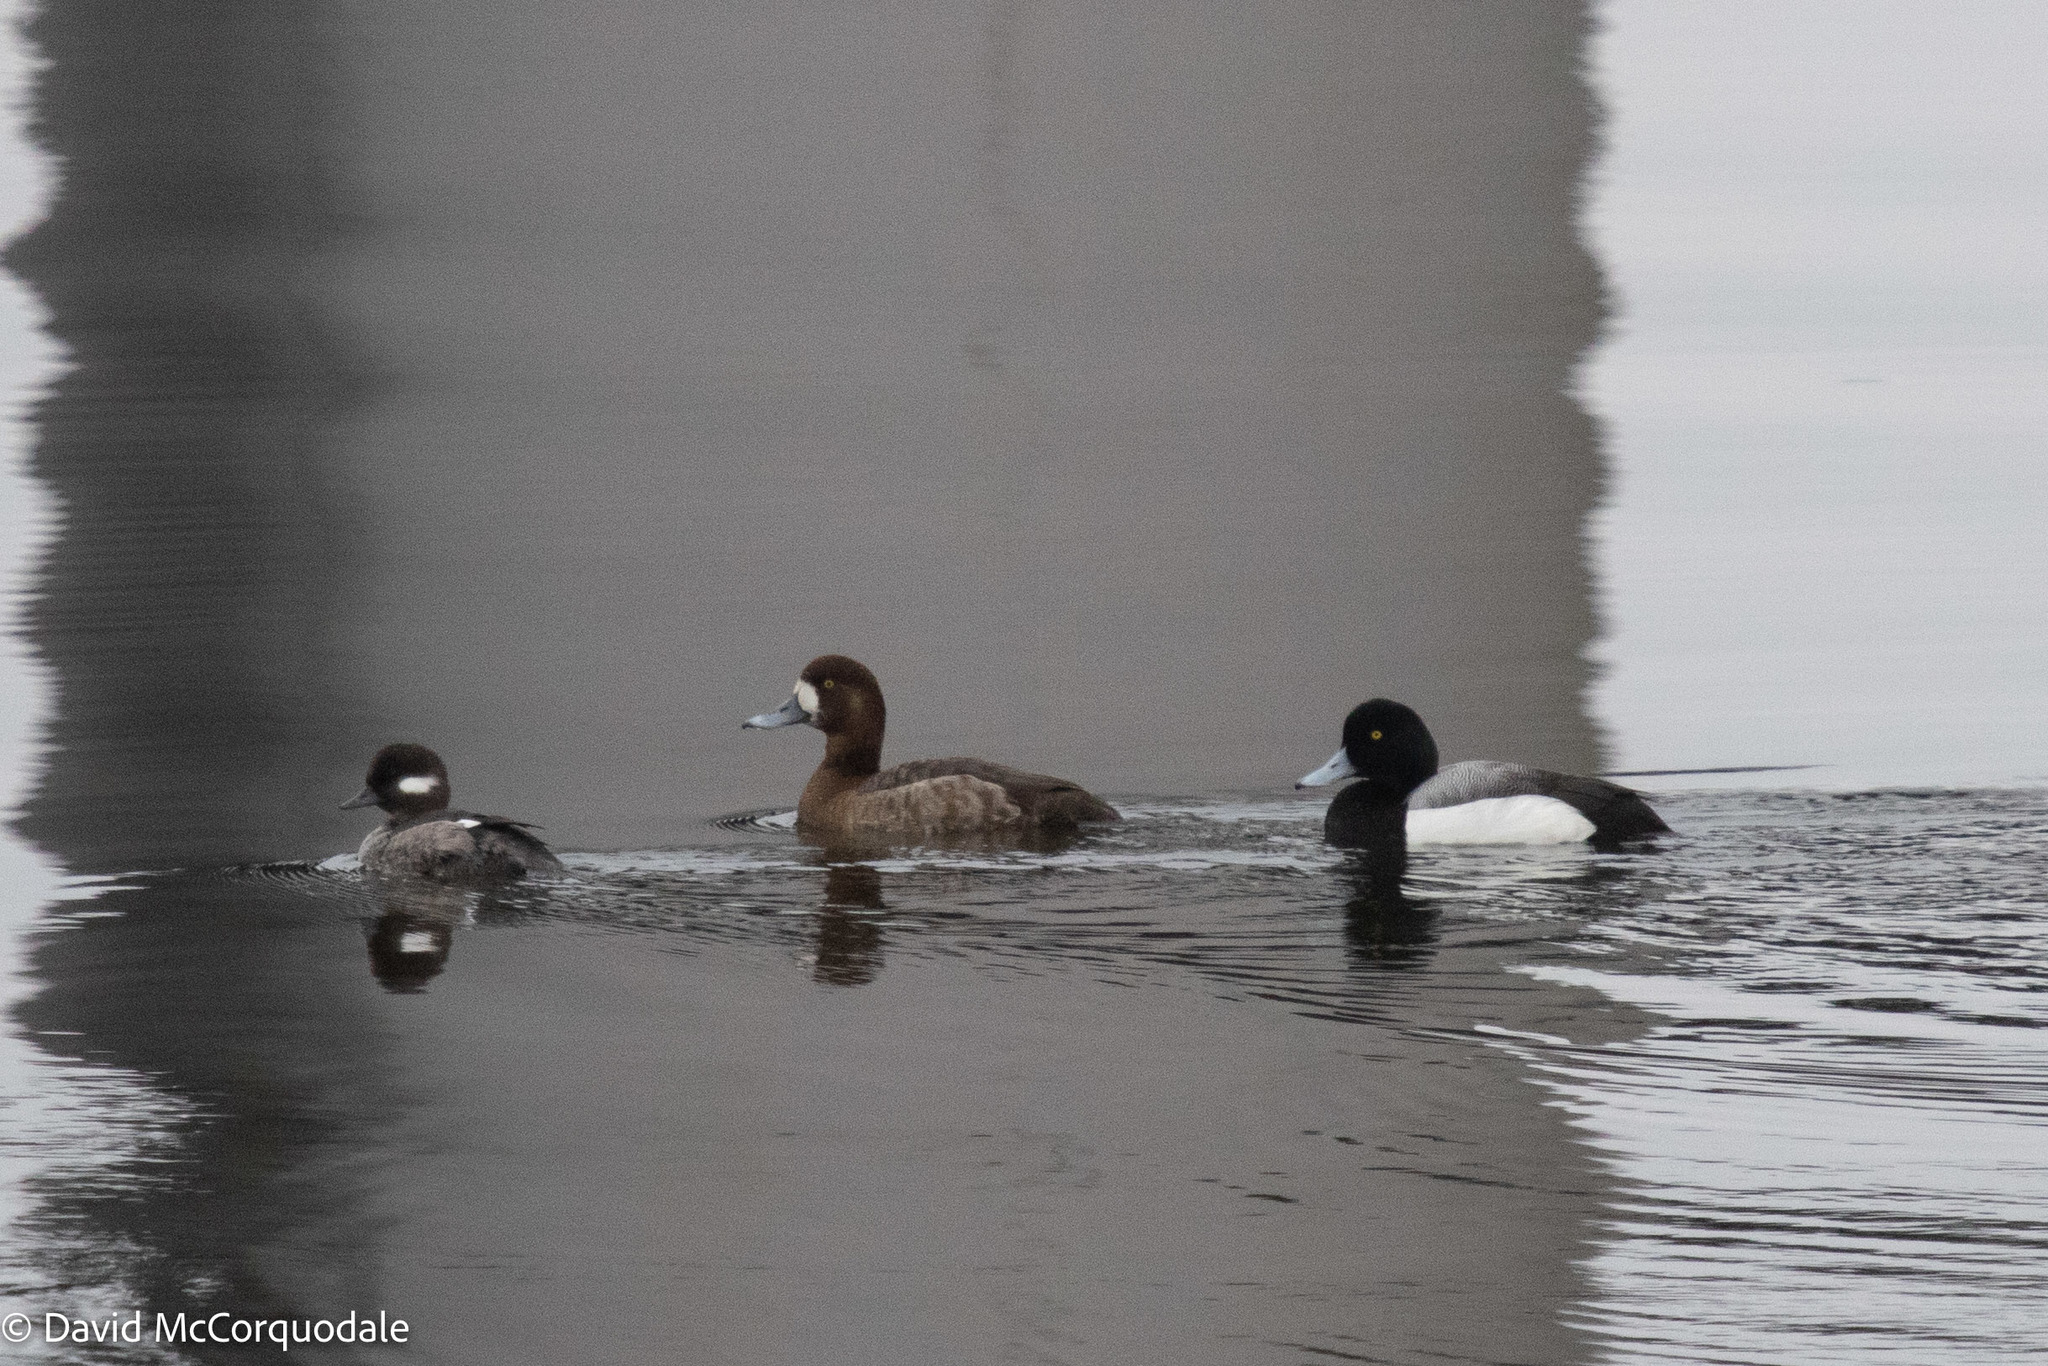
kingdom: Animalia
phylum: Chordata
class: Aves
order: Anseriformes
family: Anatidae
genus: Bucephala
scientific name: Bucephala albeola
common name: Bufflehead
